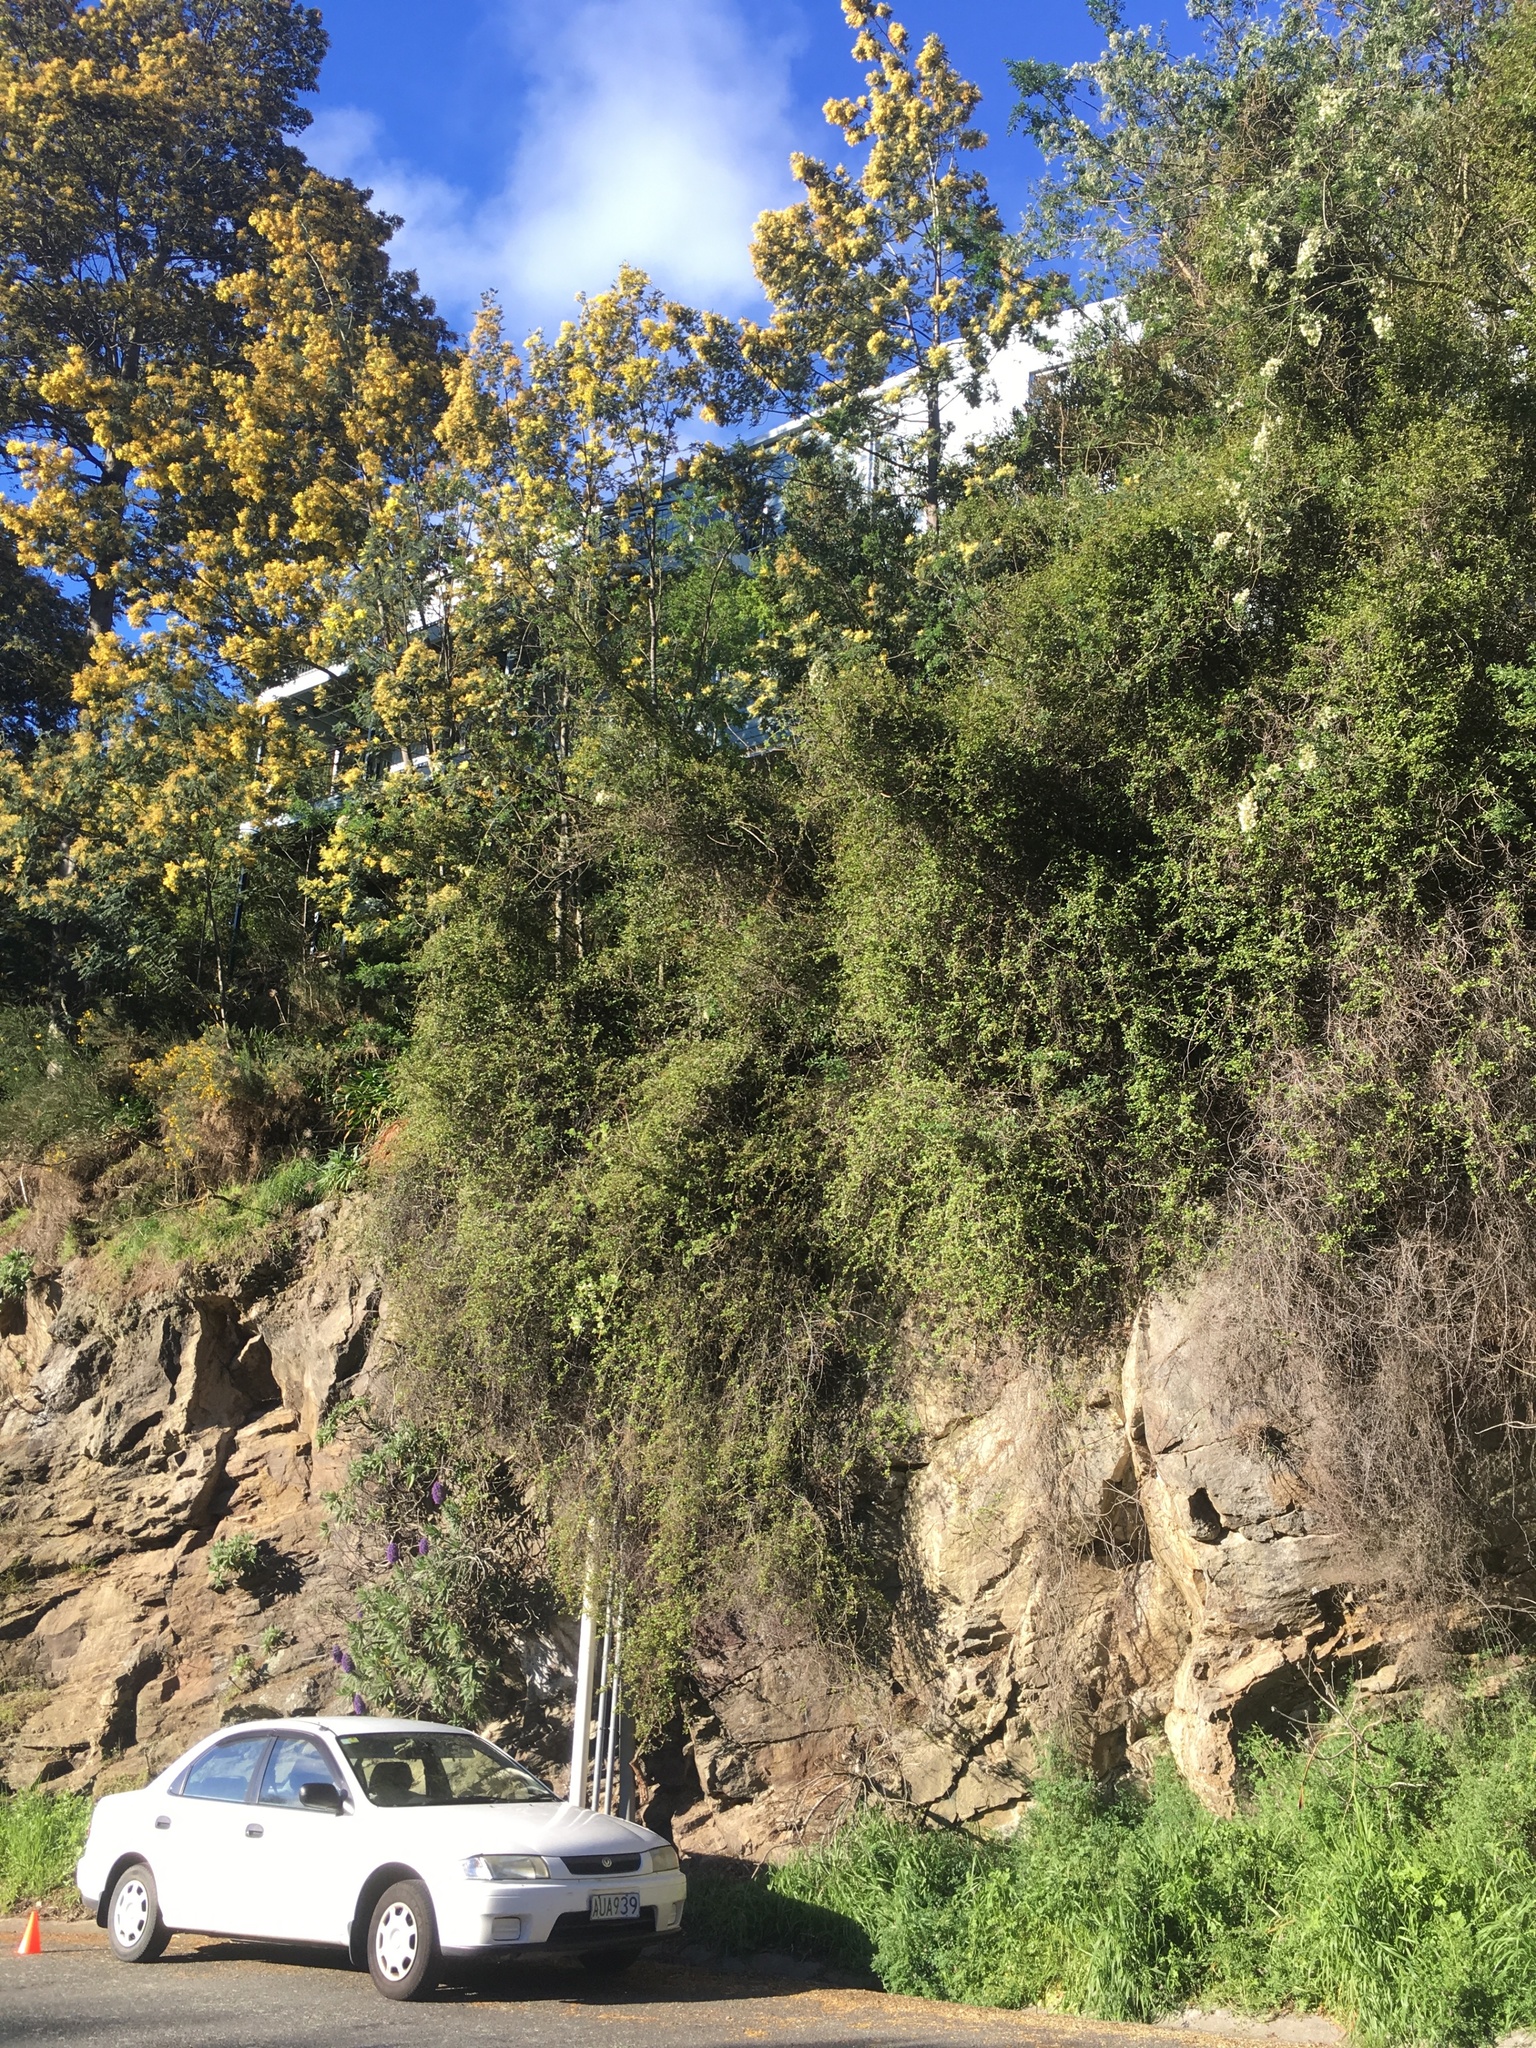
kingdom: Plantae
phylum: Tracheophyta
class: Magnoliopsida
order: Caryophyllales
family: Polygonaceae
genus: Muehlenbeckia
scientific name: Muehlenbeckia complexa
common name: Wireplant
